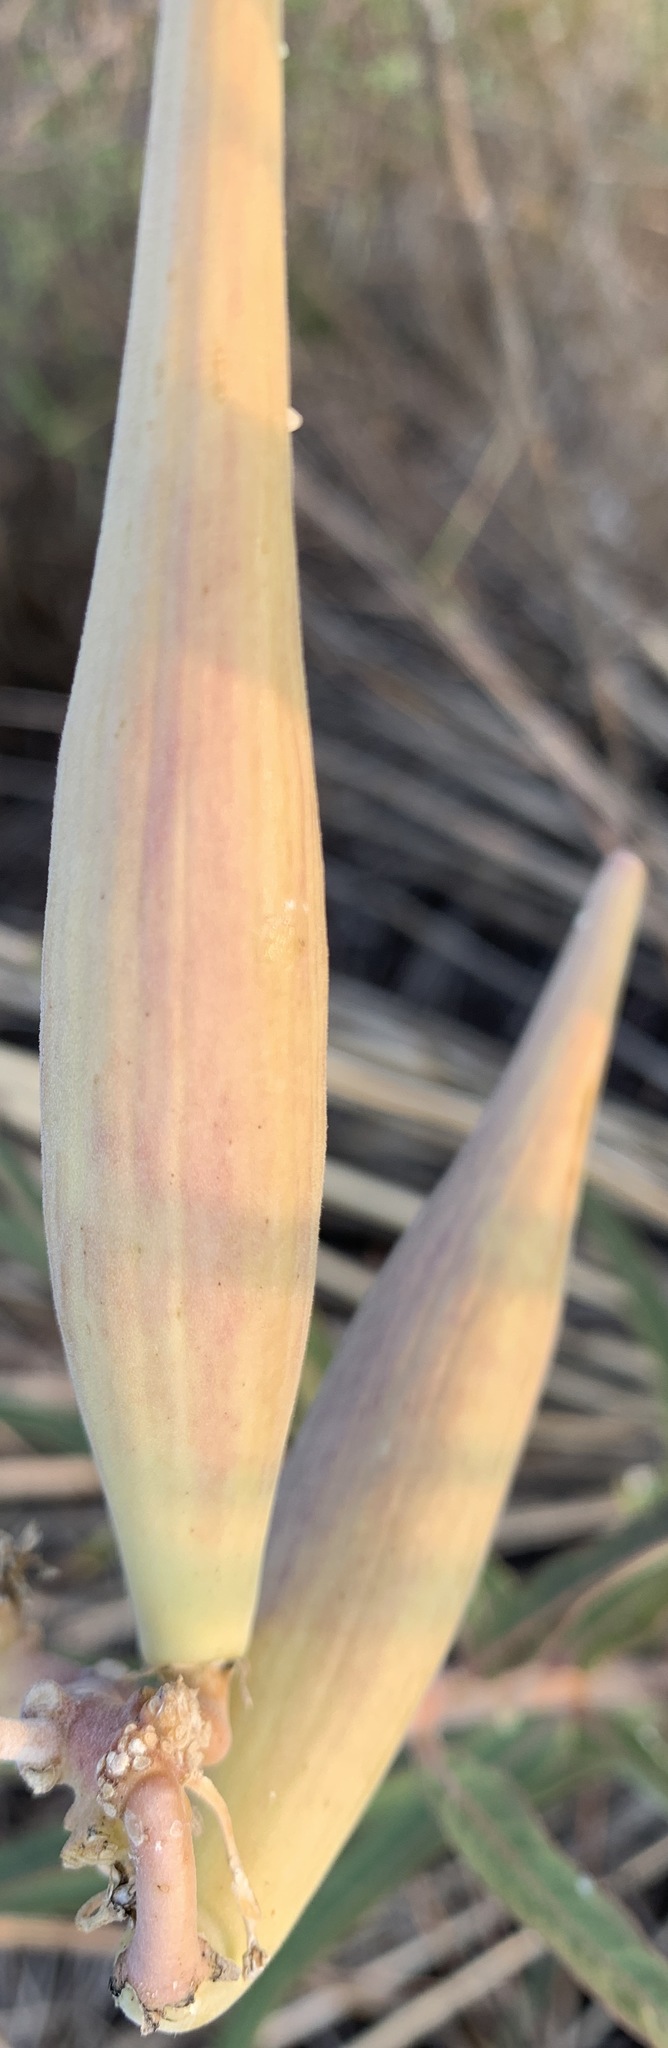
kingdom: Plantae
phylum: Tracheophyta
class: Magnoliopsida
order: Gentianales
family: Apocynaceae
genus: Asclepias
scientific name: Asclepias viridiflora
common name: Green comet milkweed
